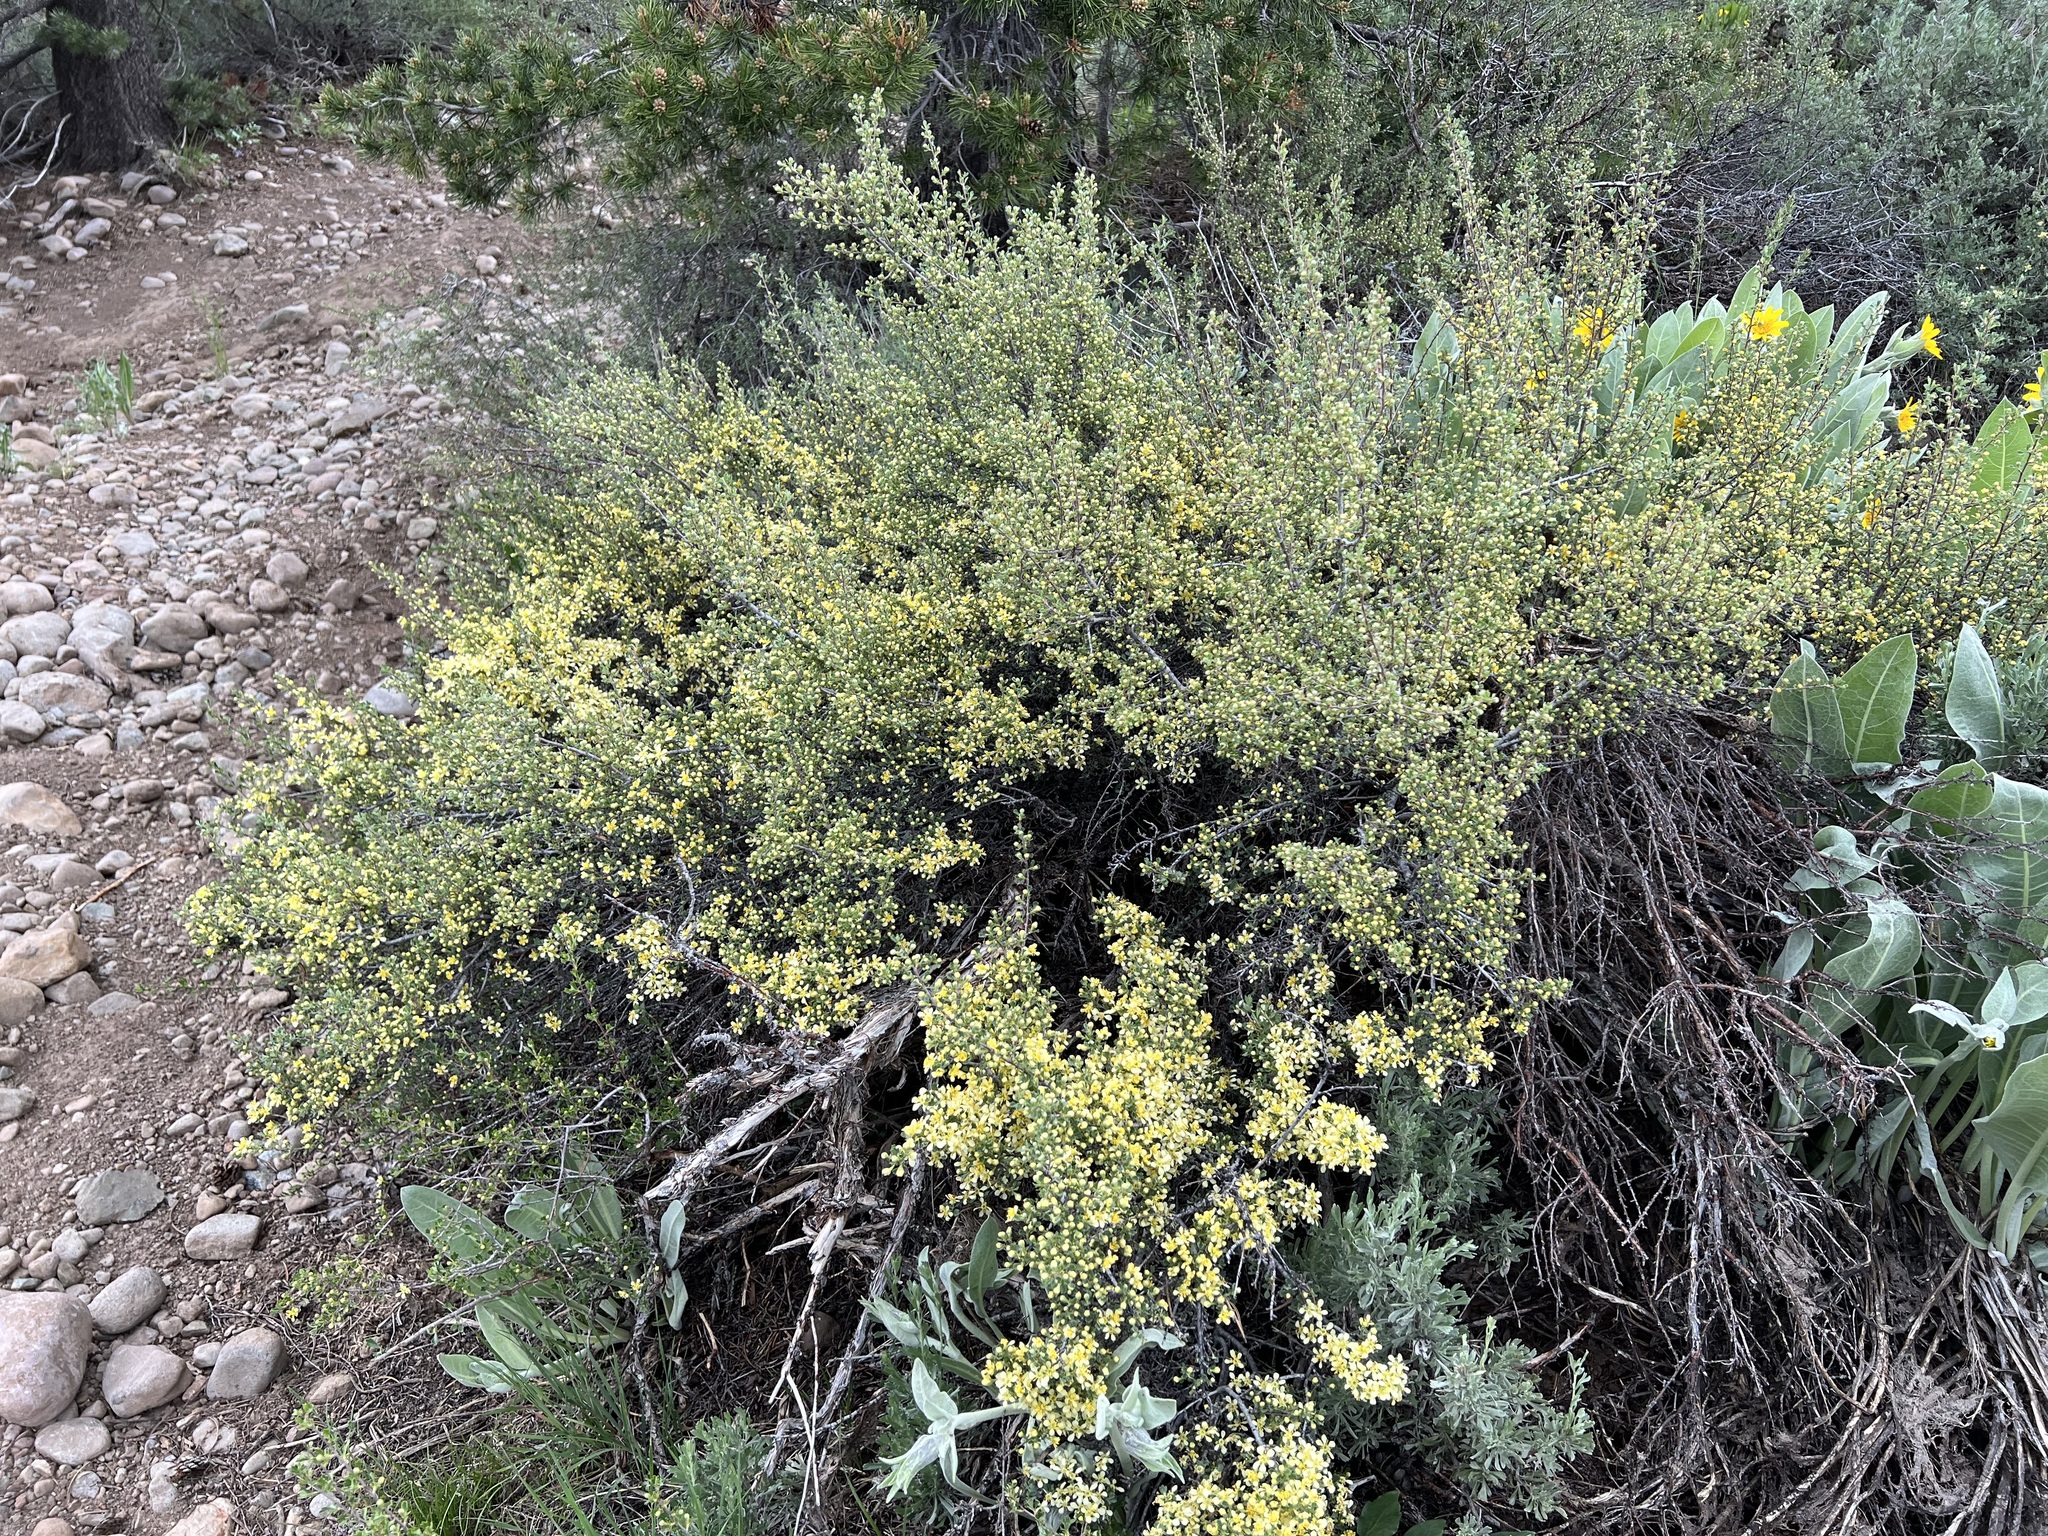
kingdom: Plantae
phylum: Tracheophyta
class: Magnoliopsida
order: Rosales
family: Rosaceae
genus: Purshia
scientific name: Purshia tridentata
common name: Antelope bitterbrush
